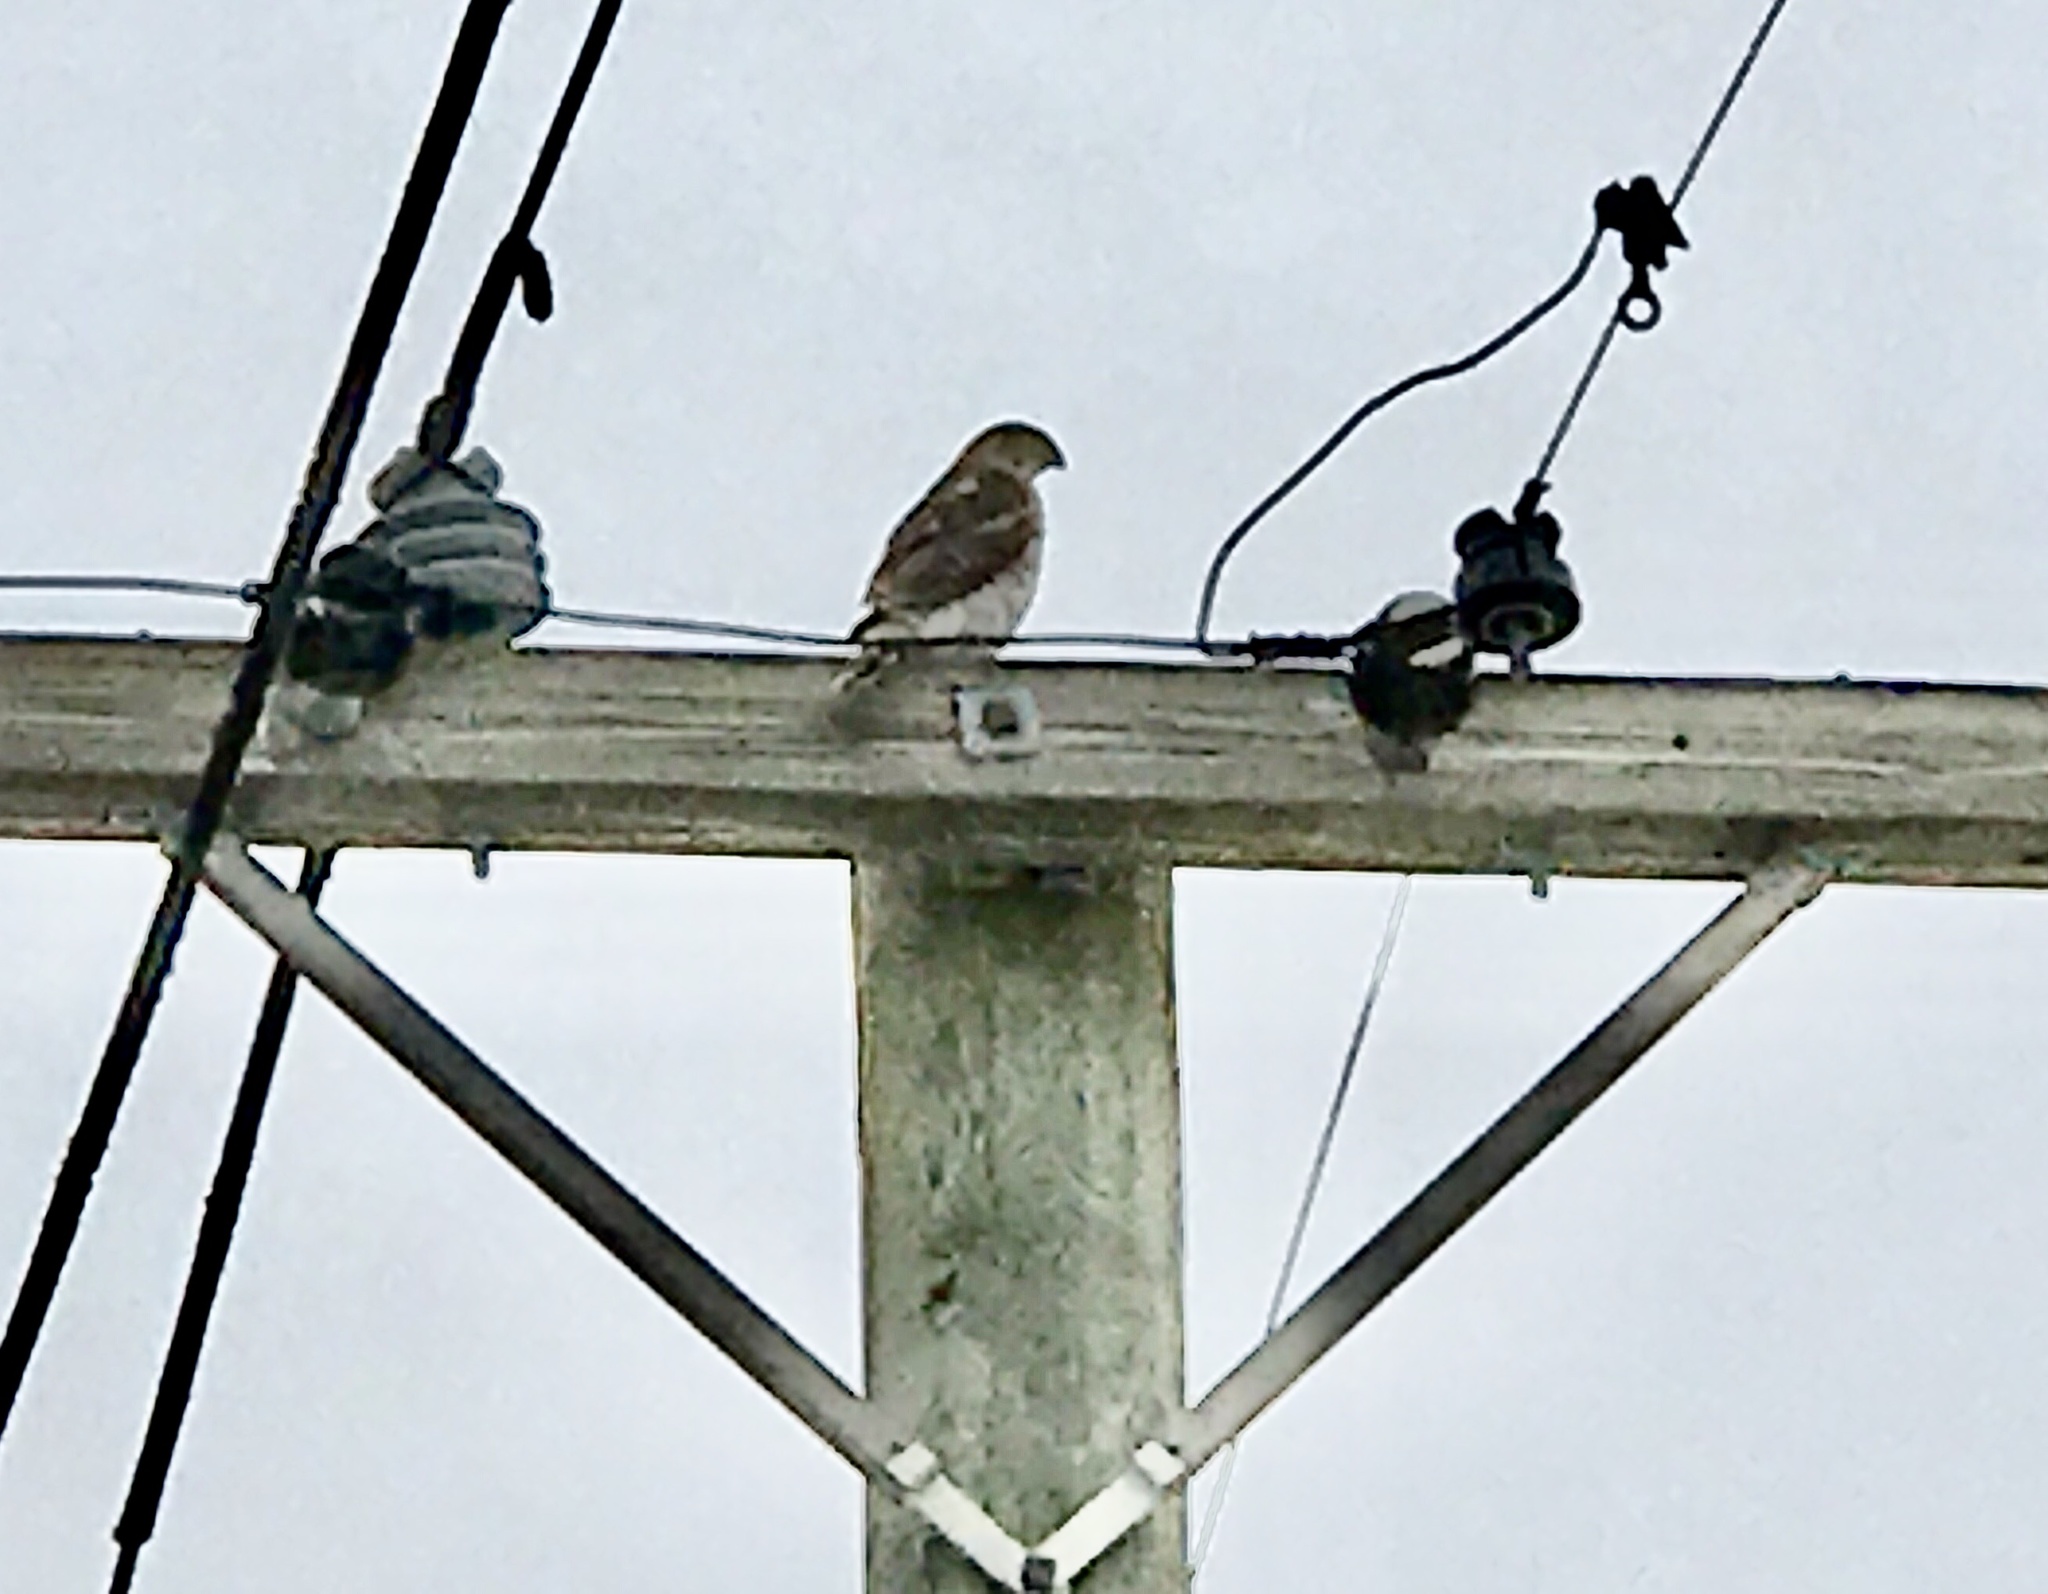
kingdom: Animalia
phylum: Chordata
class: Aves
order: Accipitriformes
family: Accipitridae
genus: Accipiter
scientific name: Accipiter cooperii
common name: Cooper's hawk
